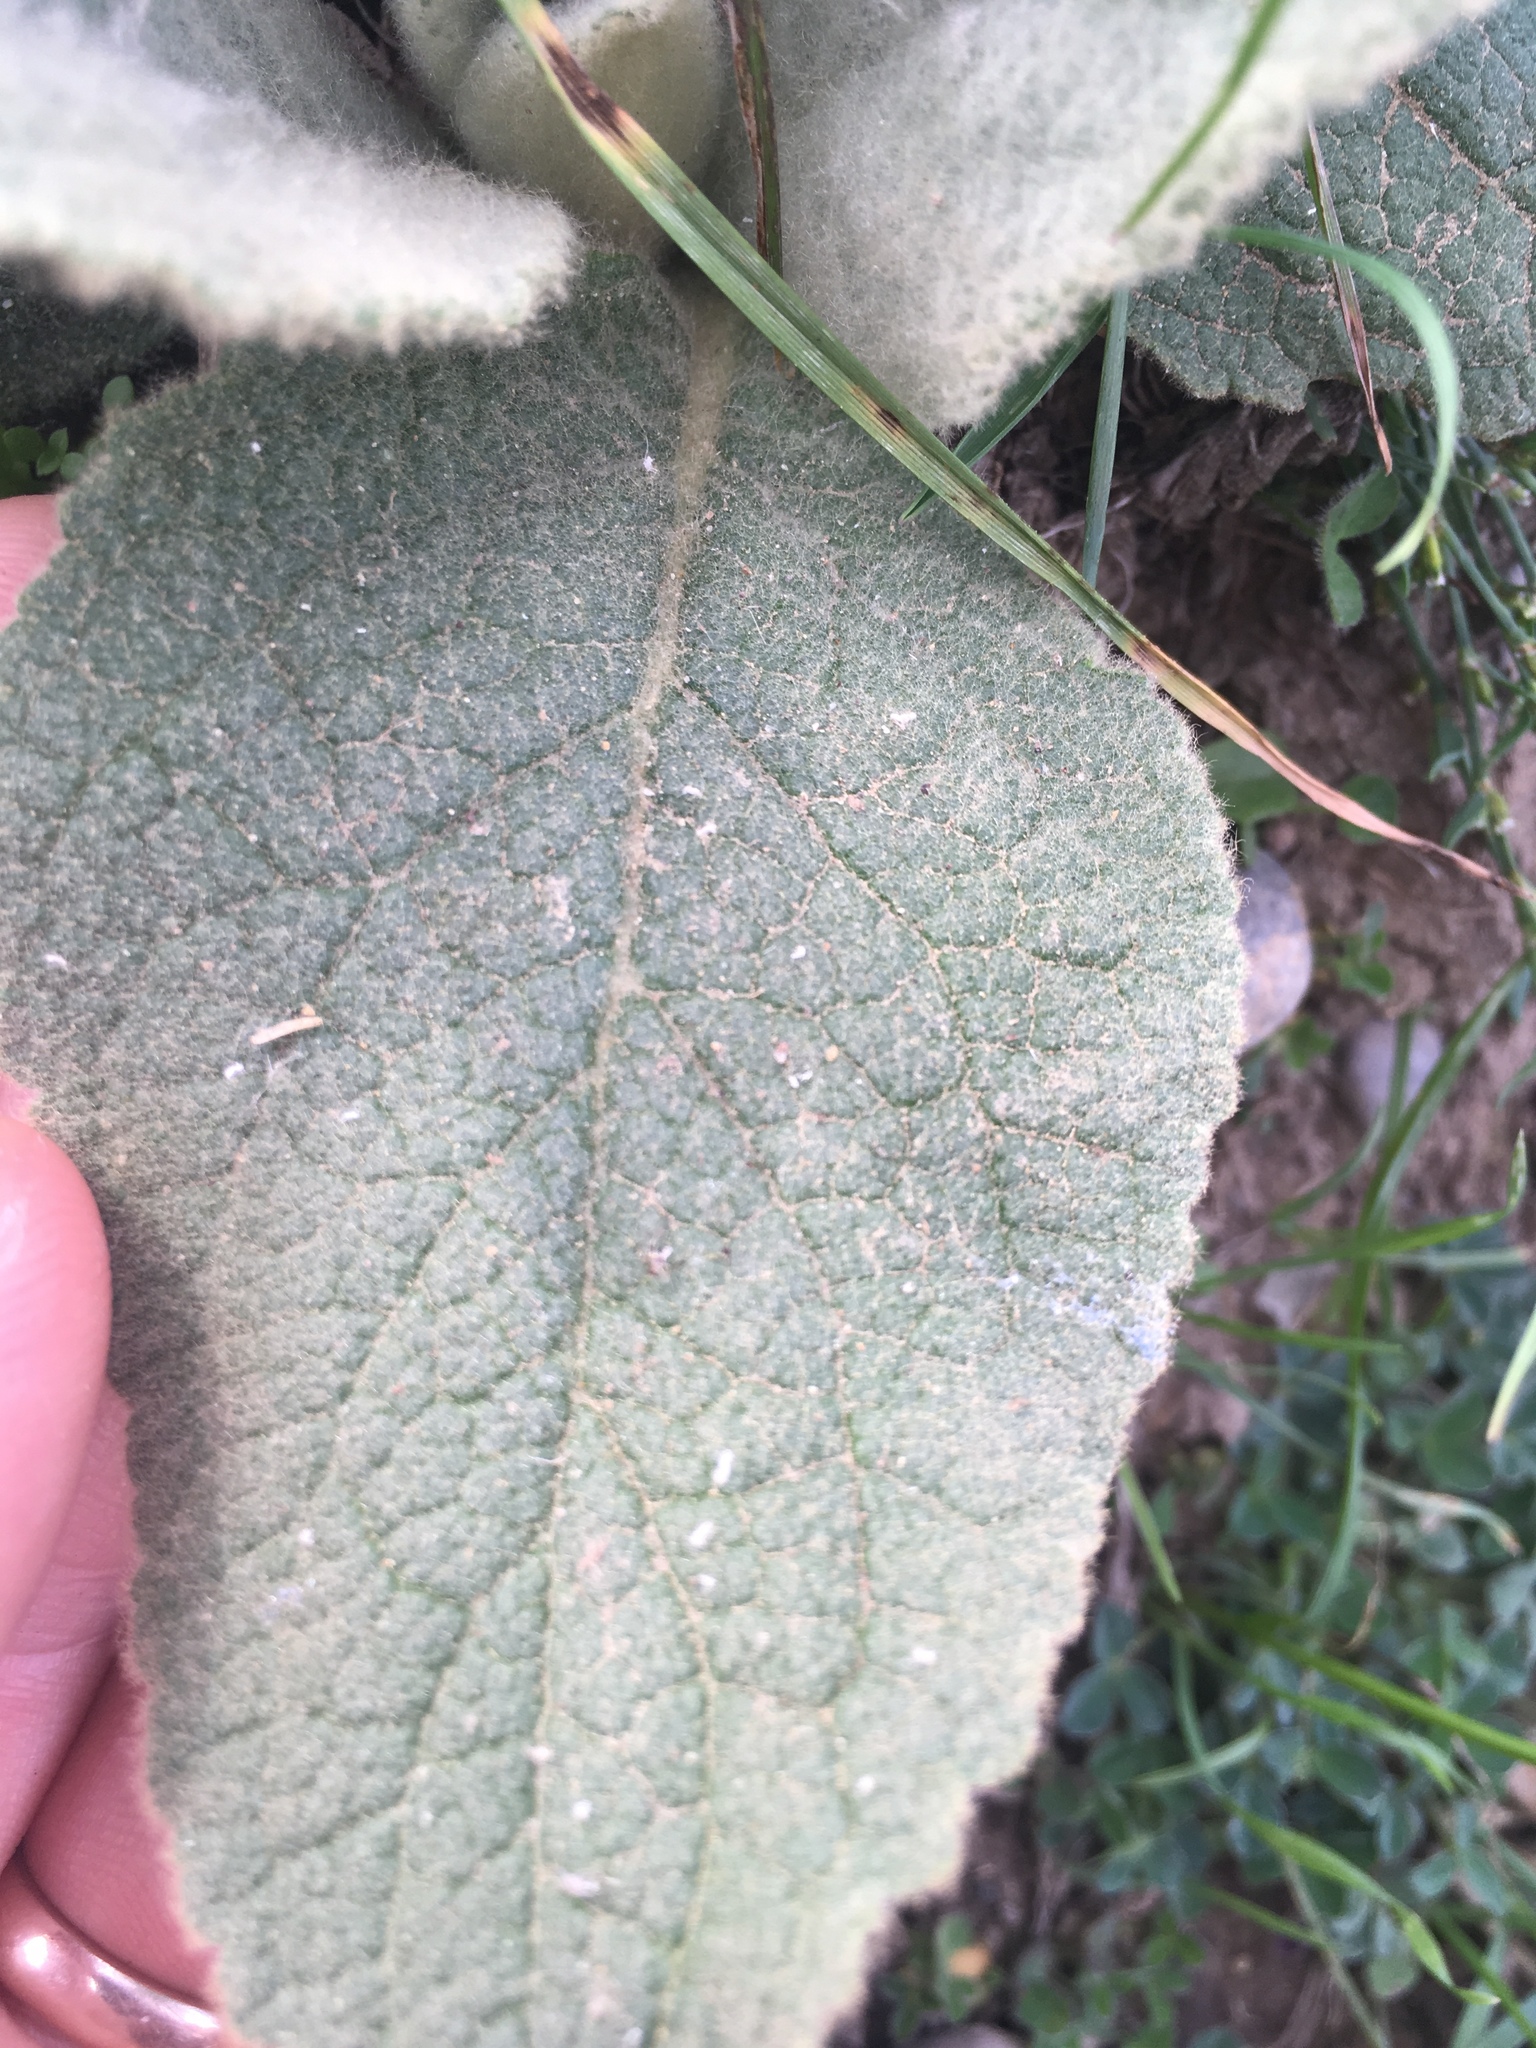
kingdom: Plantae
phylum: Tracheophyta
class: Magnoliopsida
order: Lamiales
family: Scrophulariaceae
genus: Verbascum
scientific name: Verbascum thapsus
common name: Common mullein
